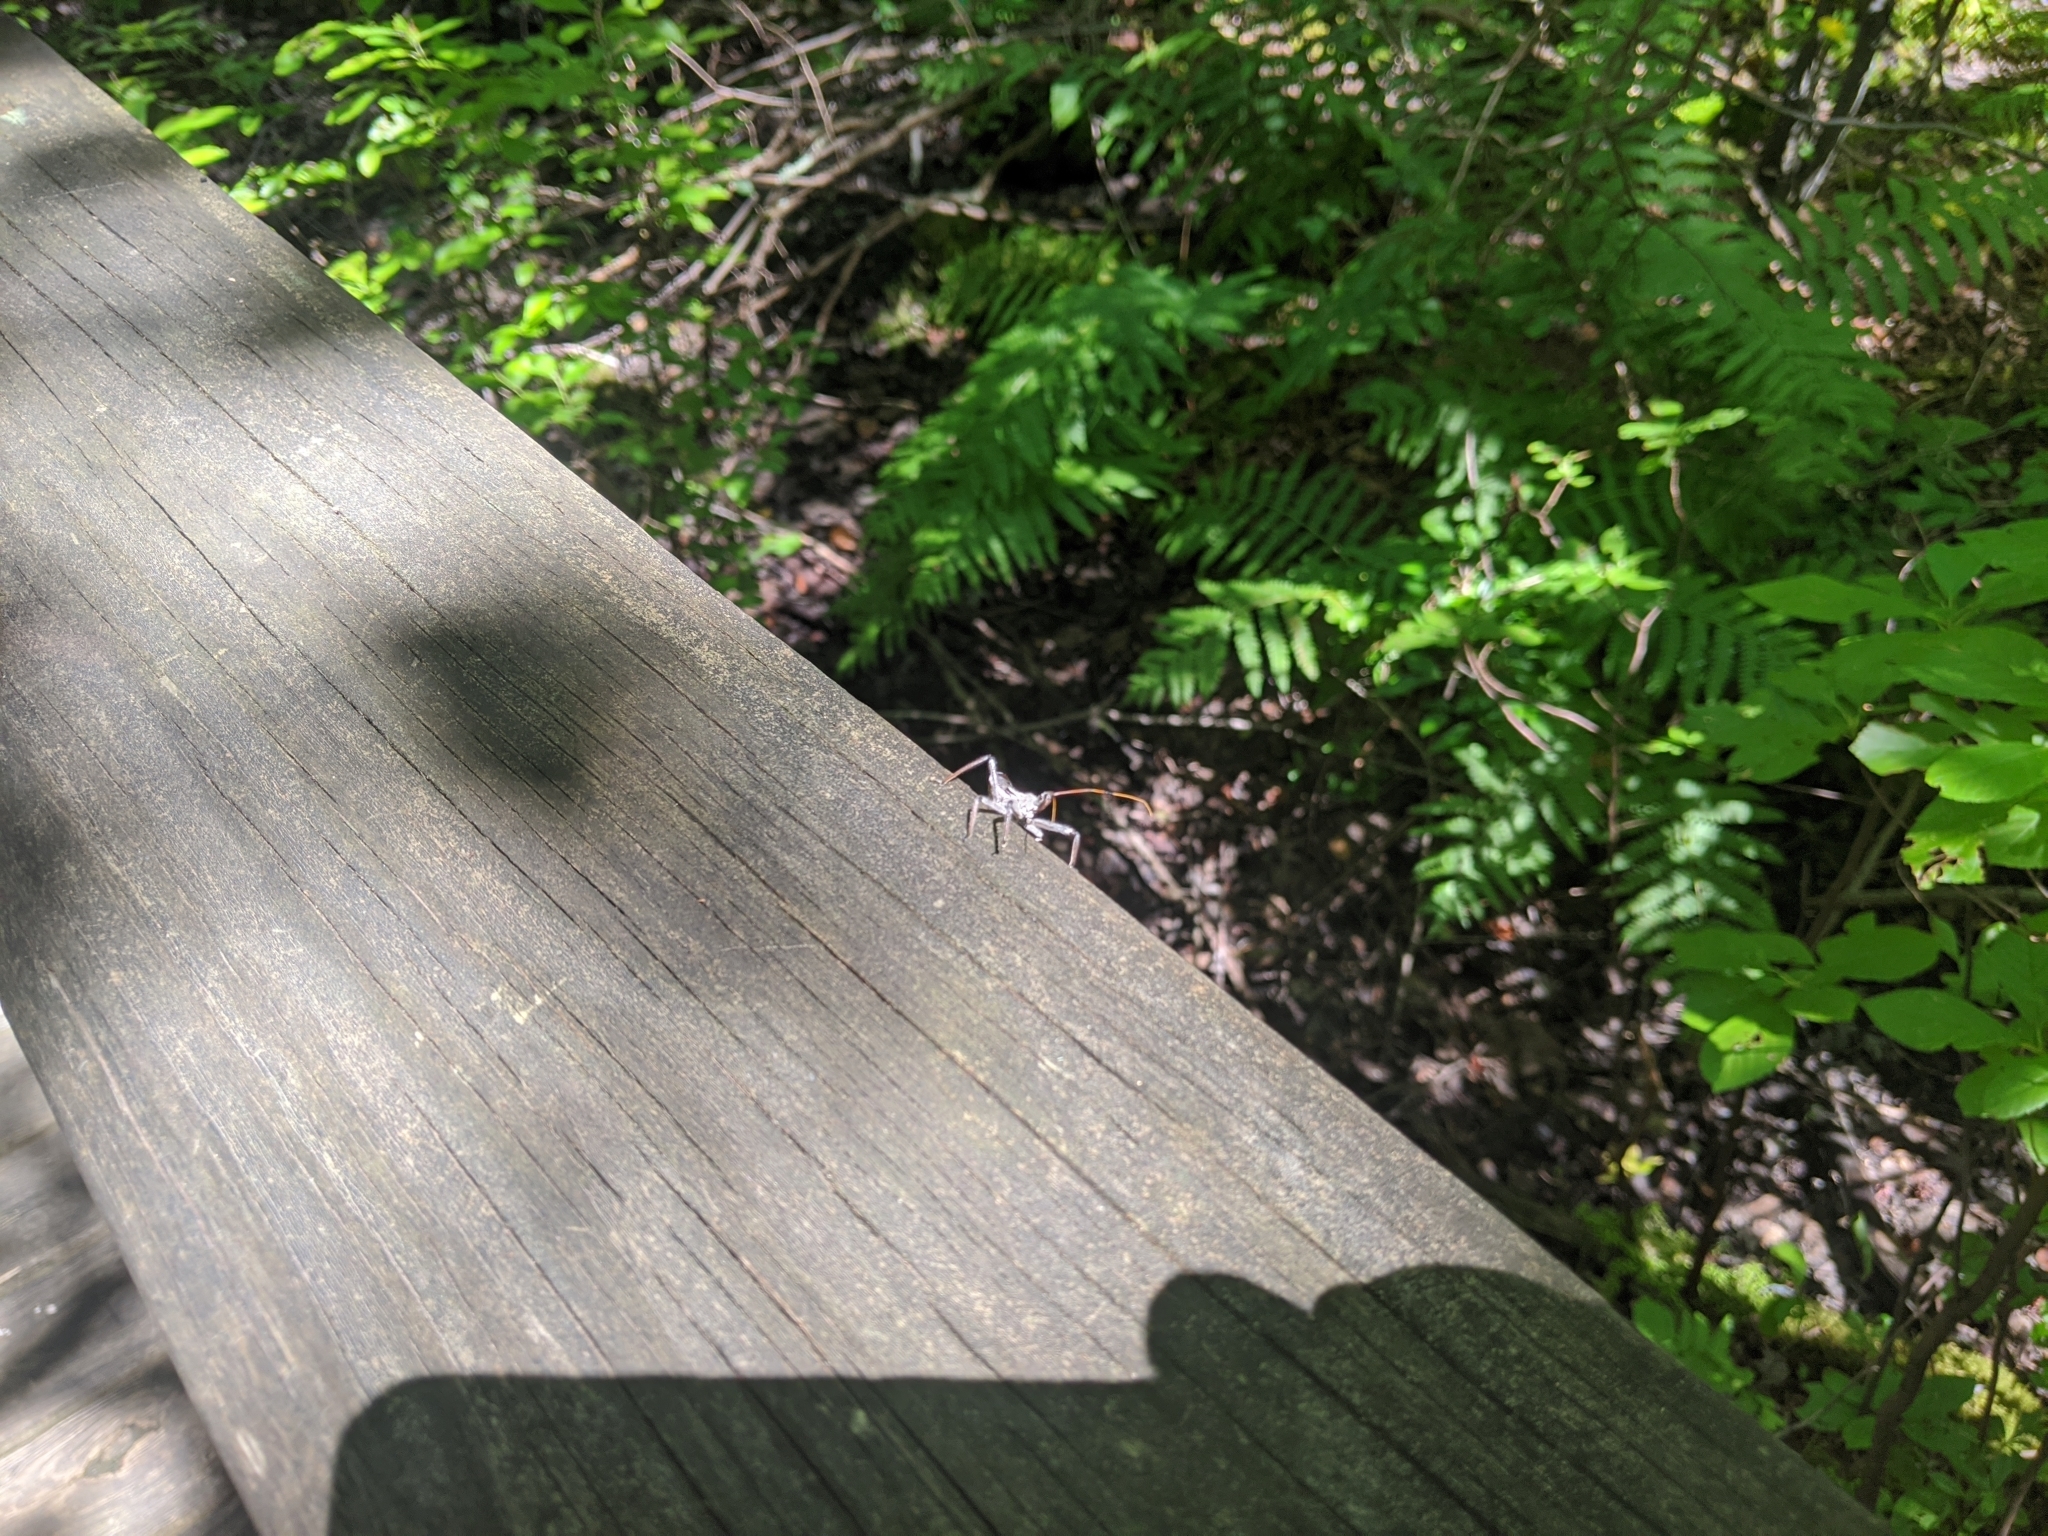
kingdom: Animalia
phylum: Arthropoda
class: Insecta
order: Hemiptera
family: Reduviidae
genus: Arilus
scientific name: Arilus cristatus
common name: North american wheel bug
